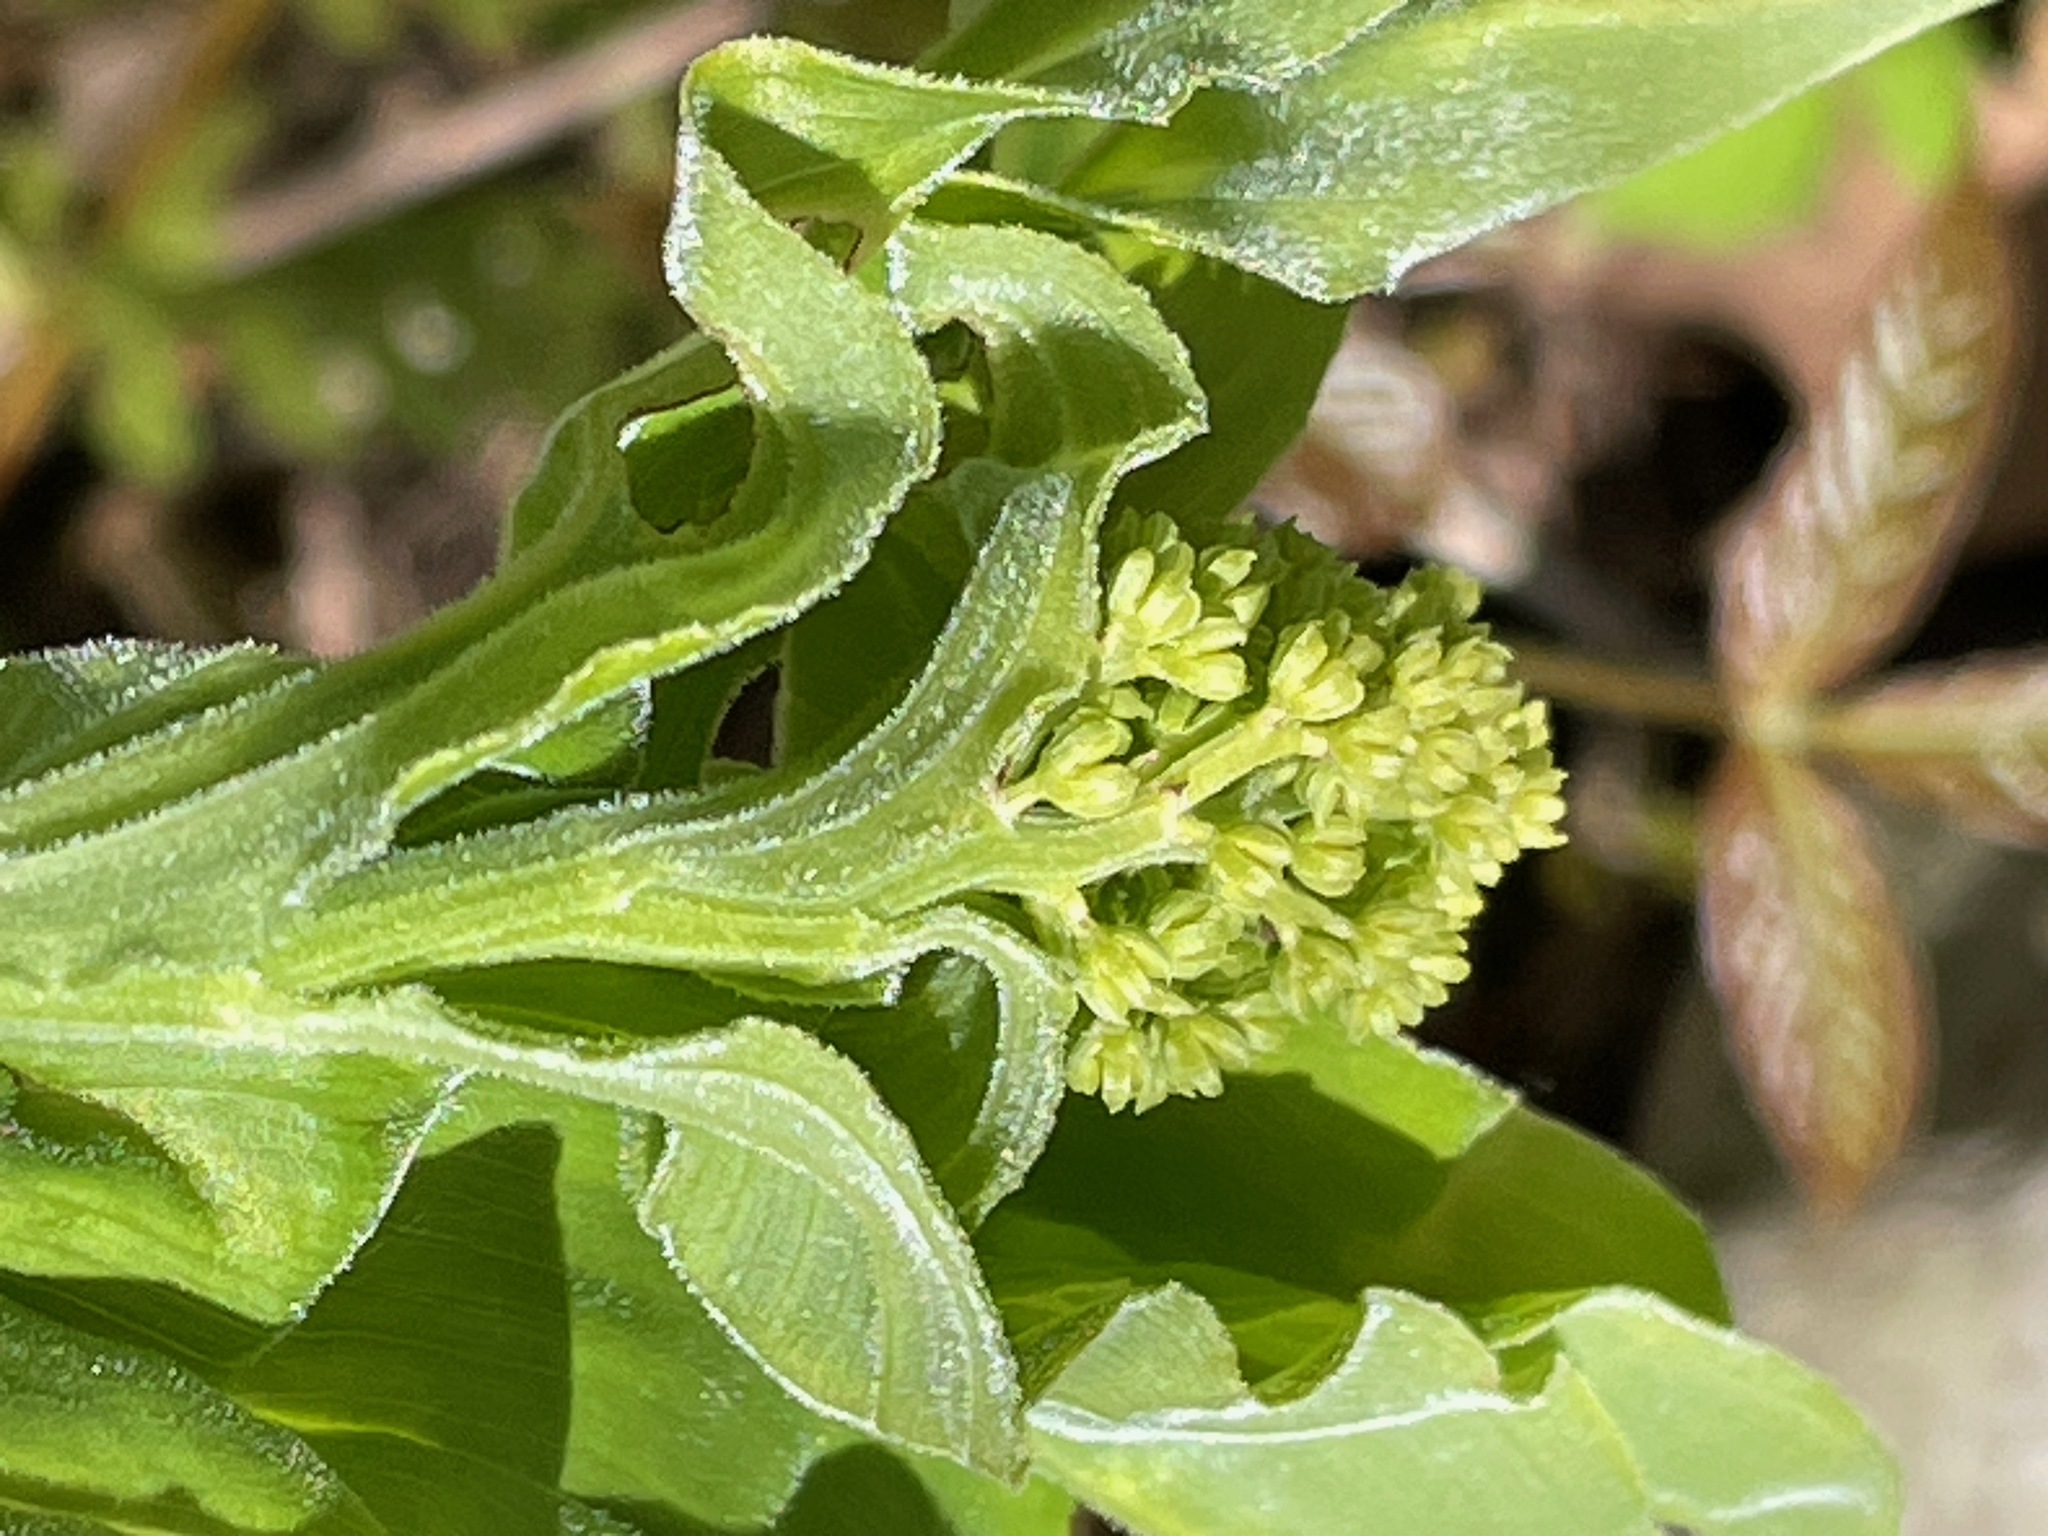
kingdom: Plantae
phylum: Tracheophyta
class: Liliopsida
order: Asparagales
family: Asparagaceae
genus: Maianthemum
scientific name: Maianthemum racemosum
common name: False spikenard
